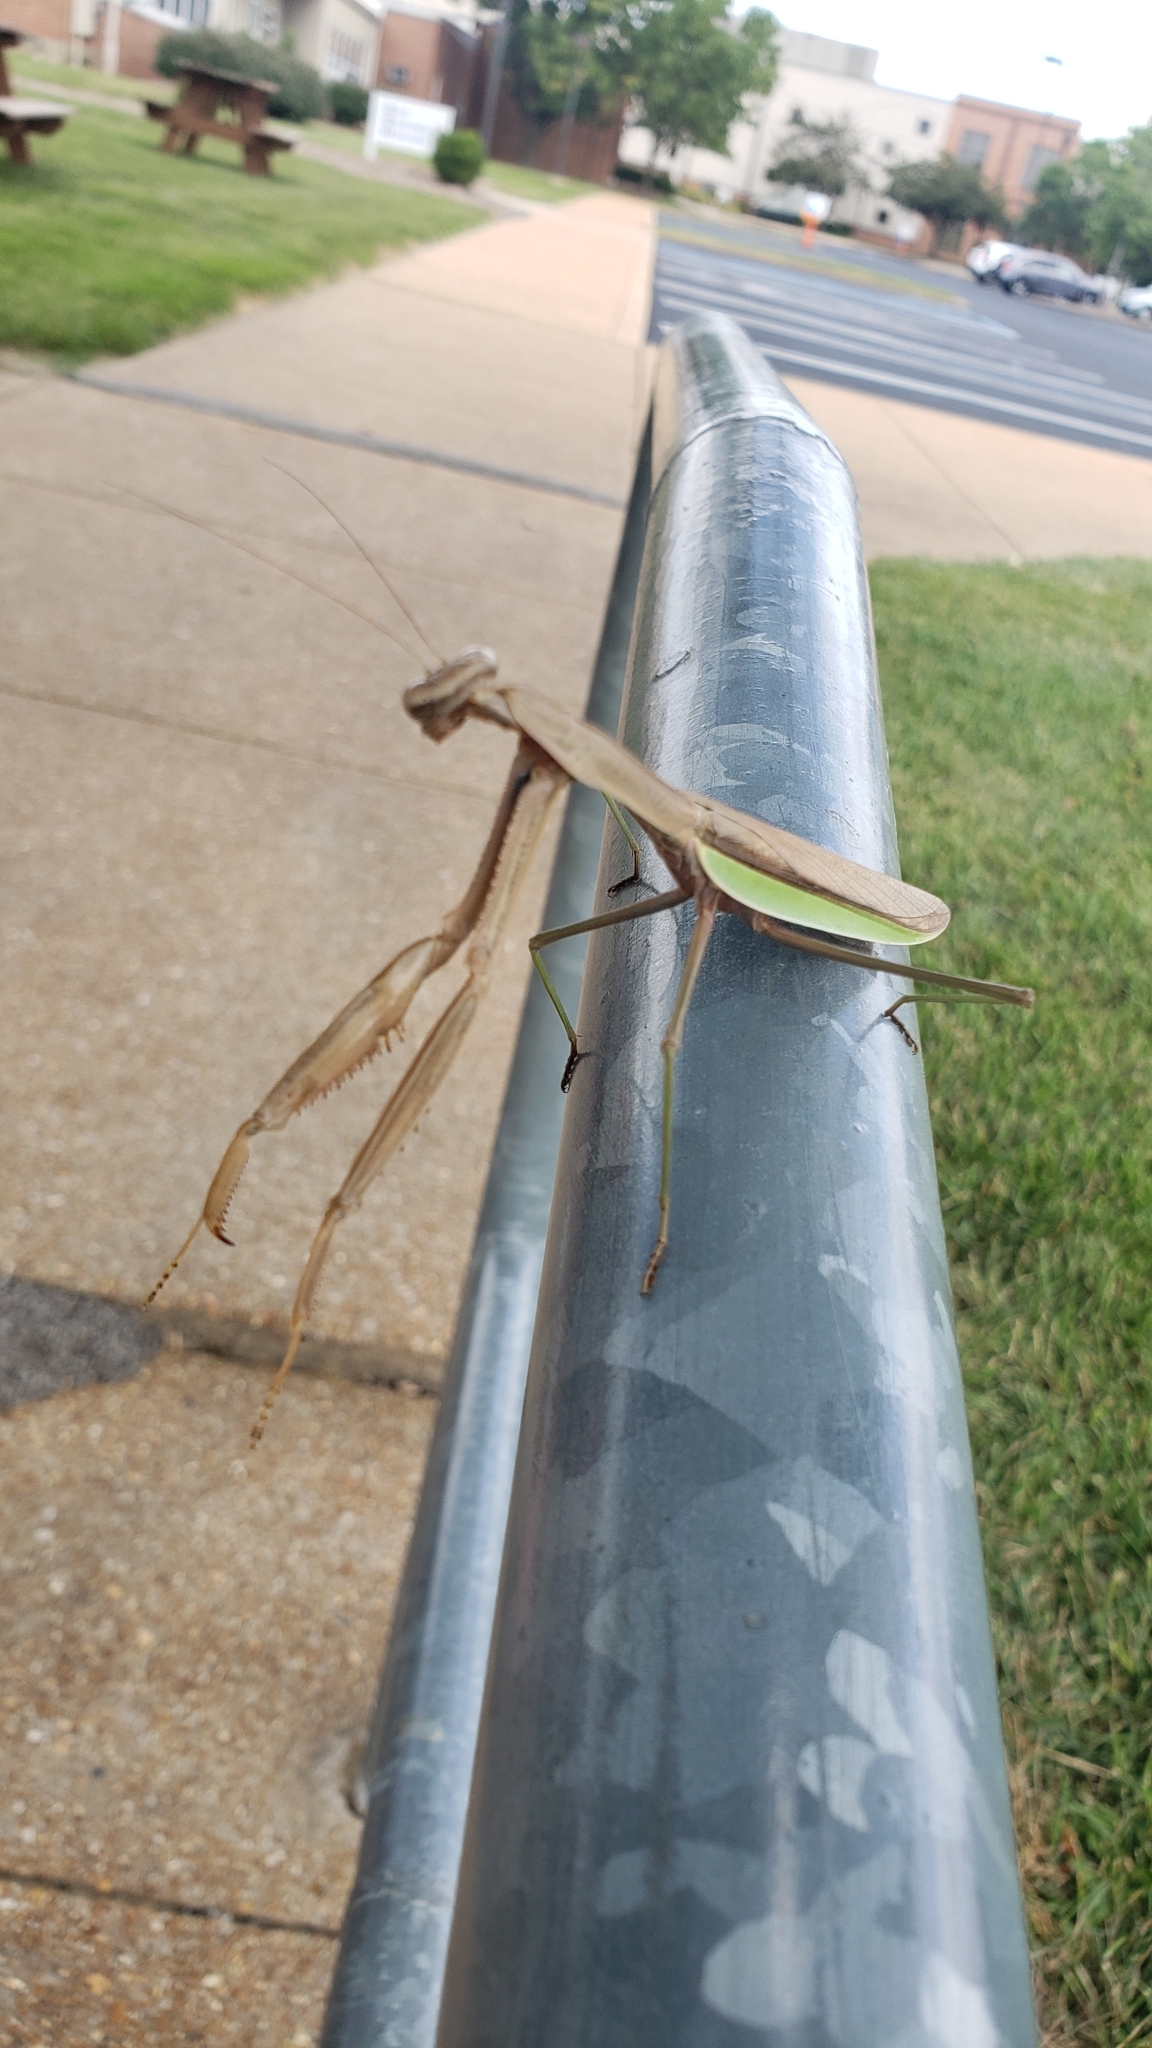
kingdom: Animalia
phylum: Arthropoda
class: Insecta
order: Mantodea
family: Mantidae
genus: Tenodera
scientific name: Tenodera sinensis
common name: Chinese mantis
